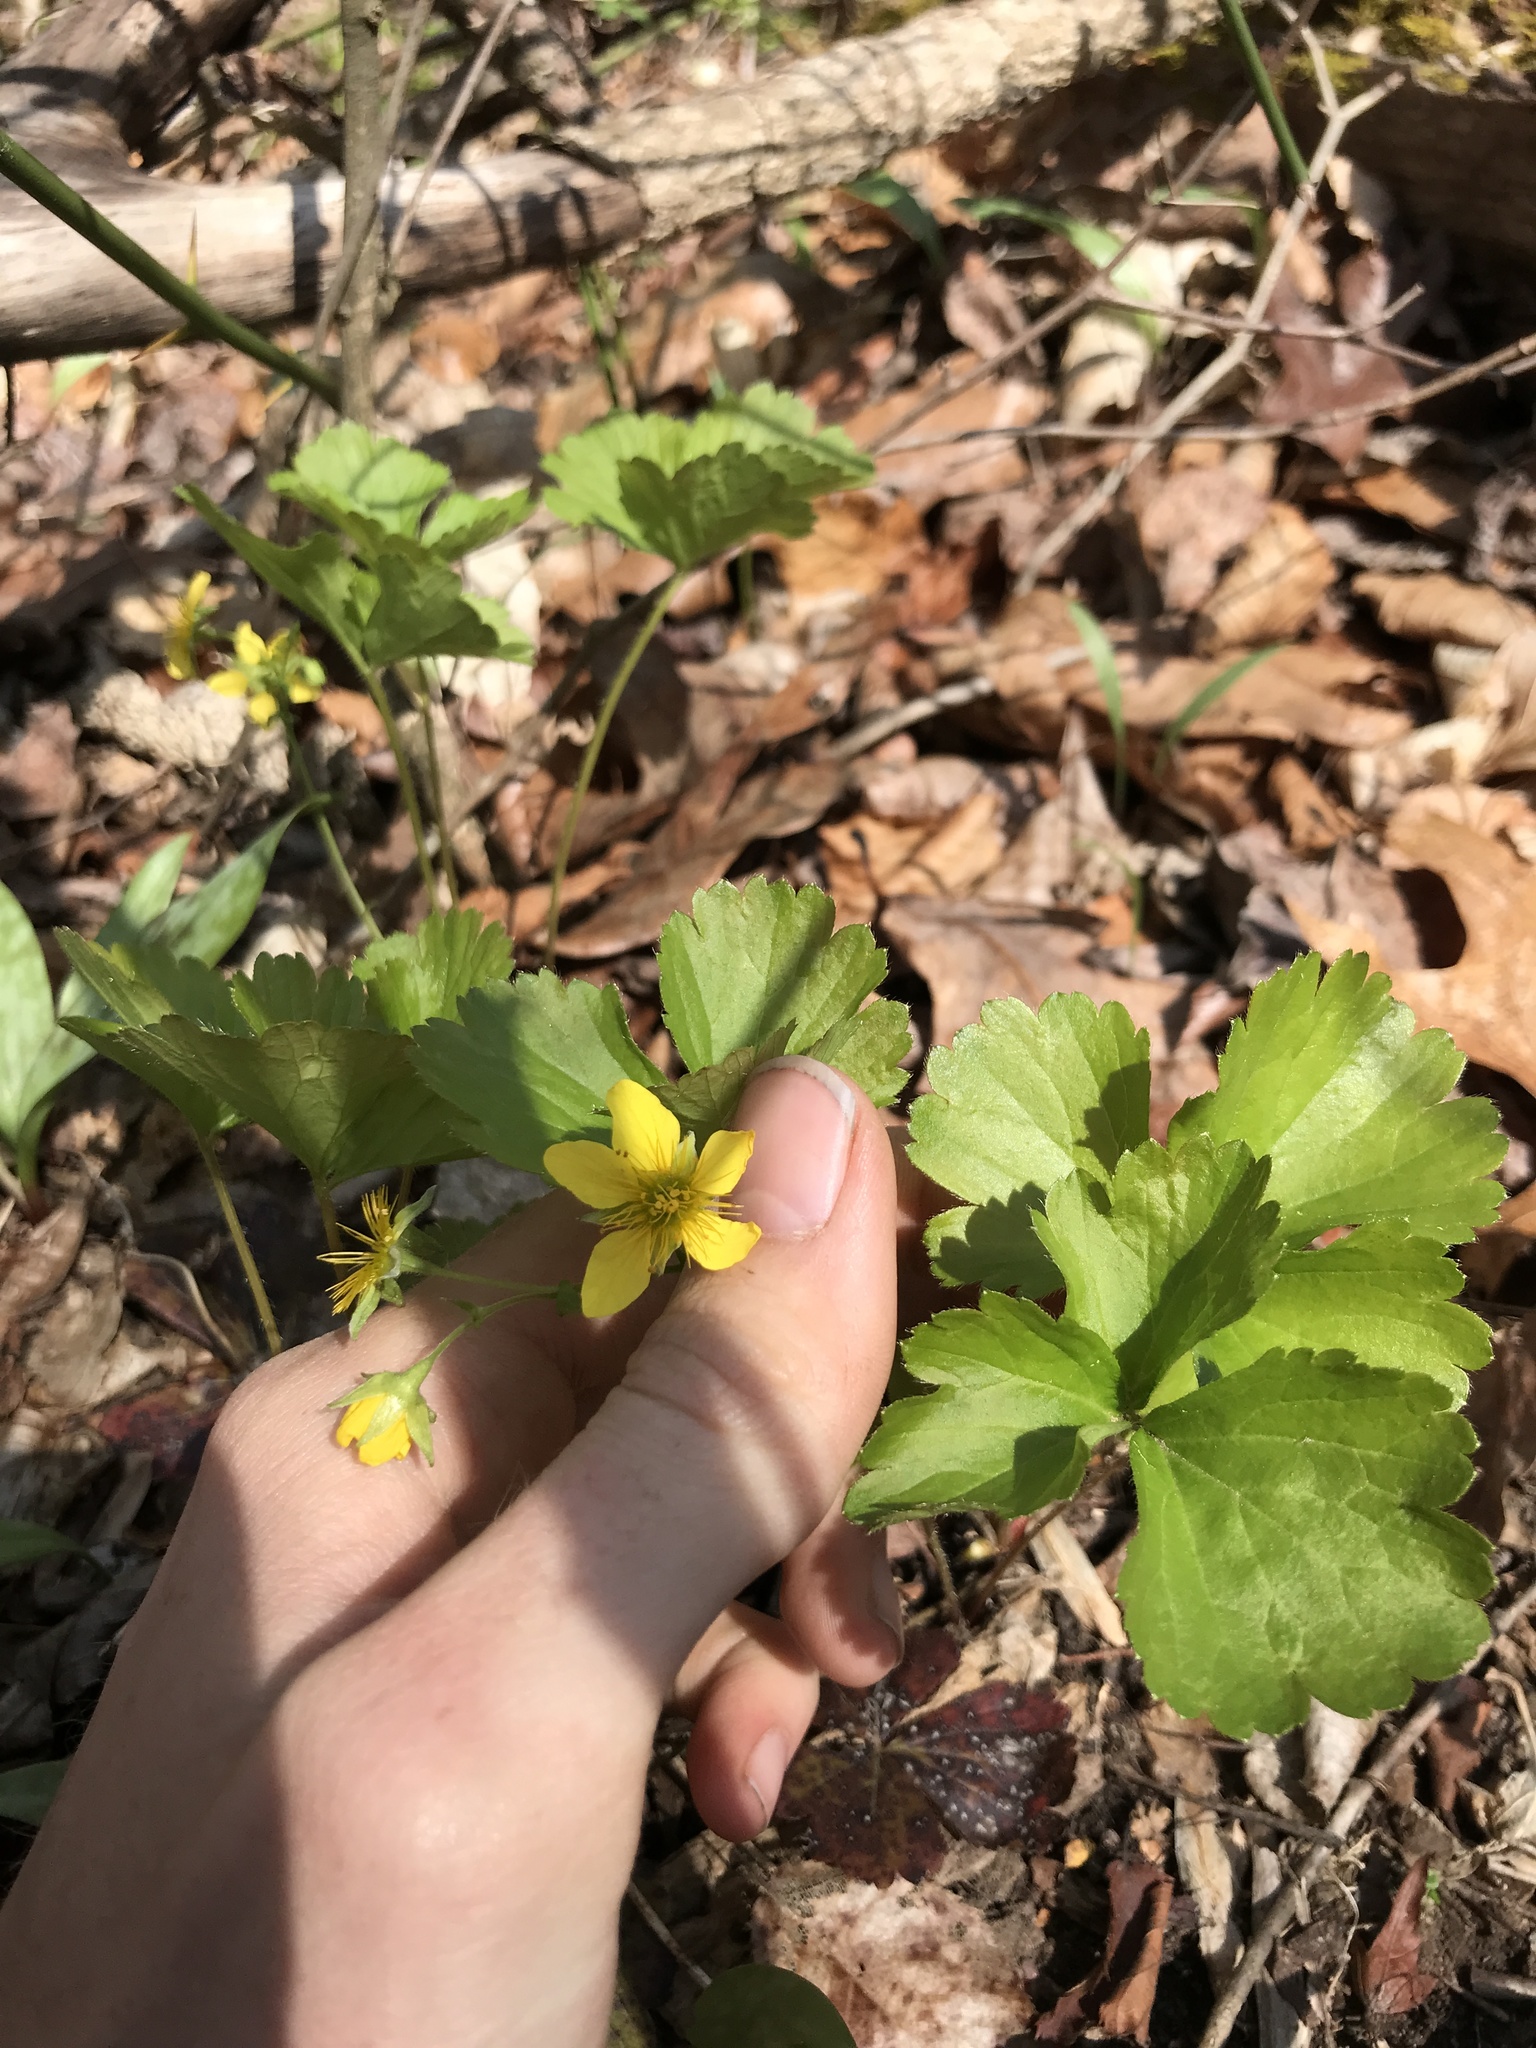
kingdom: Plantae
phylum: Tracheophyta
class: Magnoliopsida
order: Rosales
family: Rosaceae
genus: Geum
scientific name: Geum fragarioides
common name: Appalachian barren strawberry
